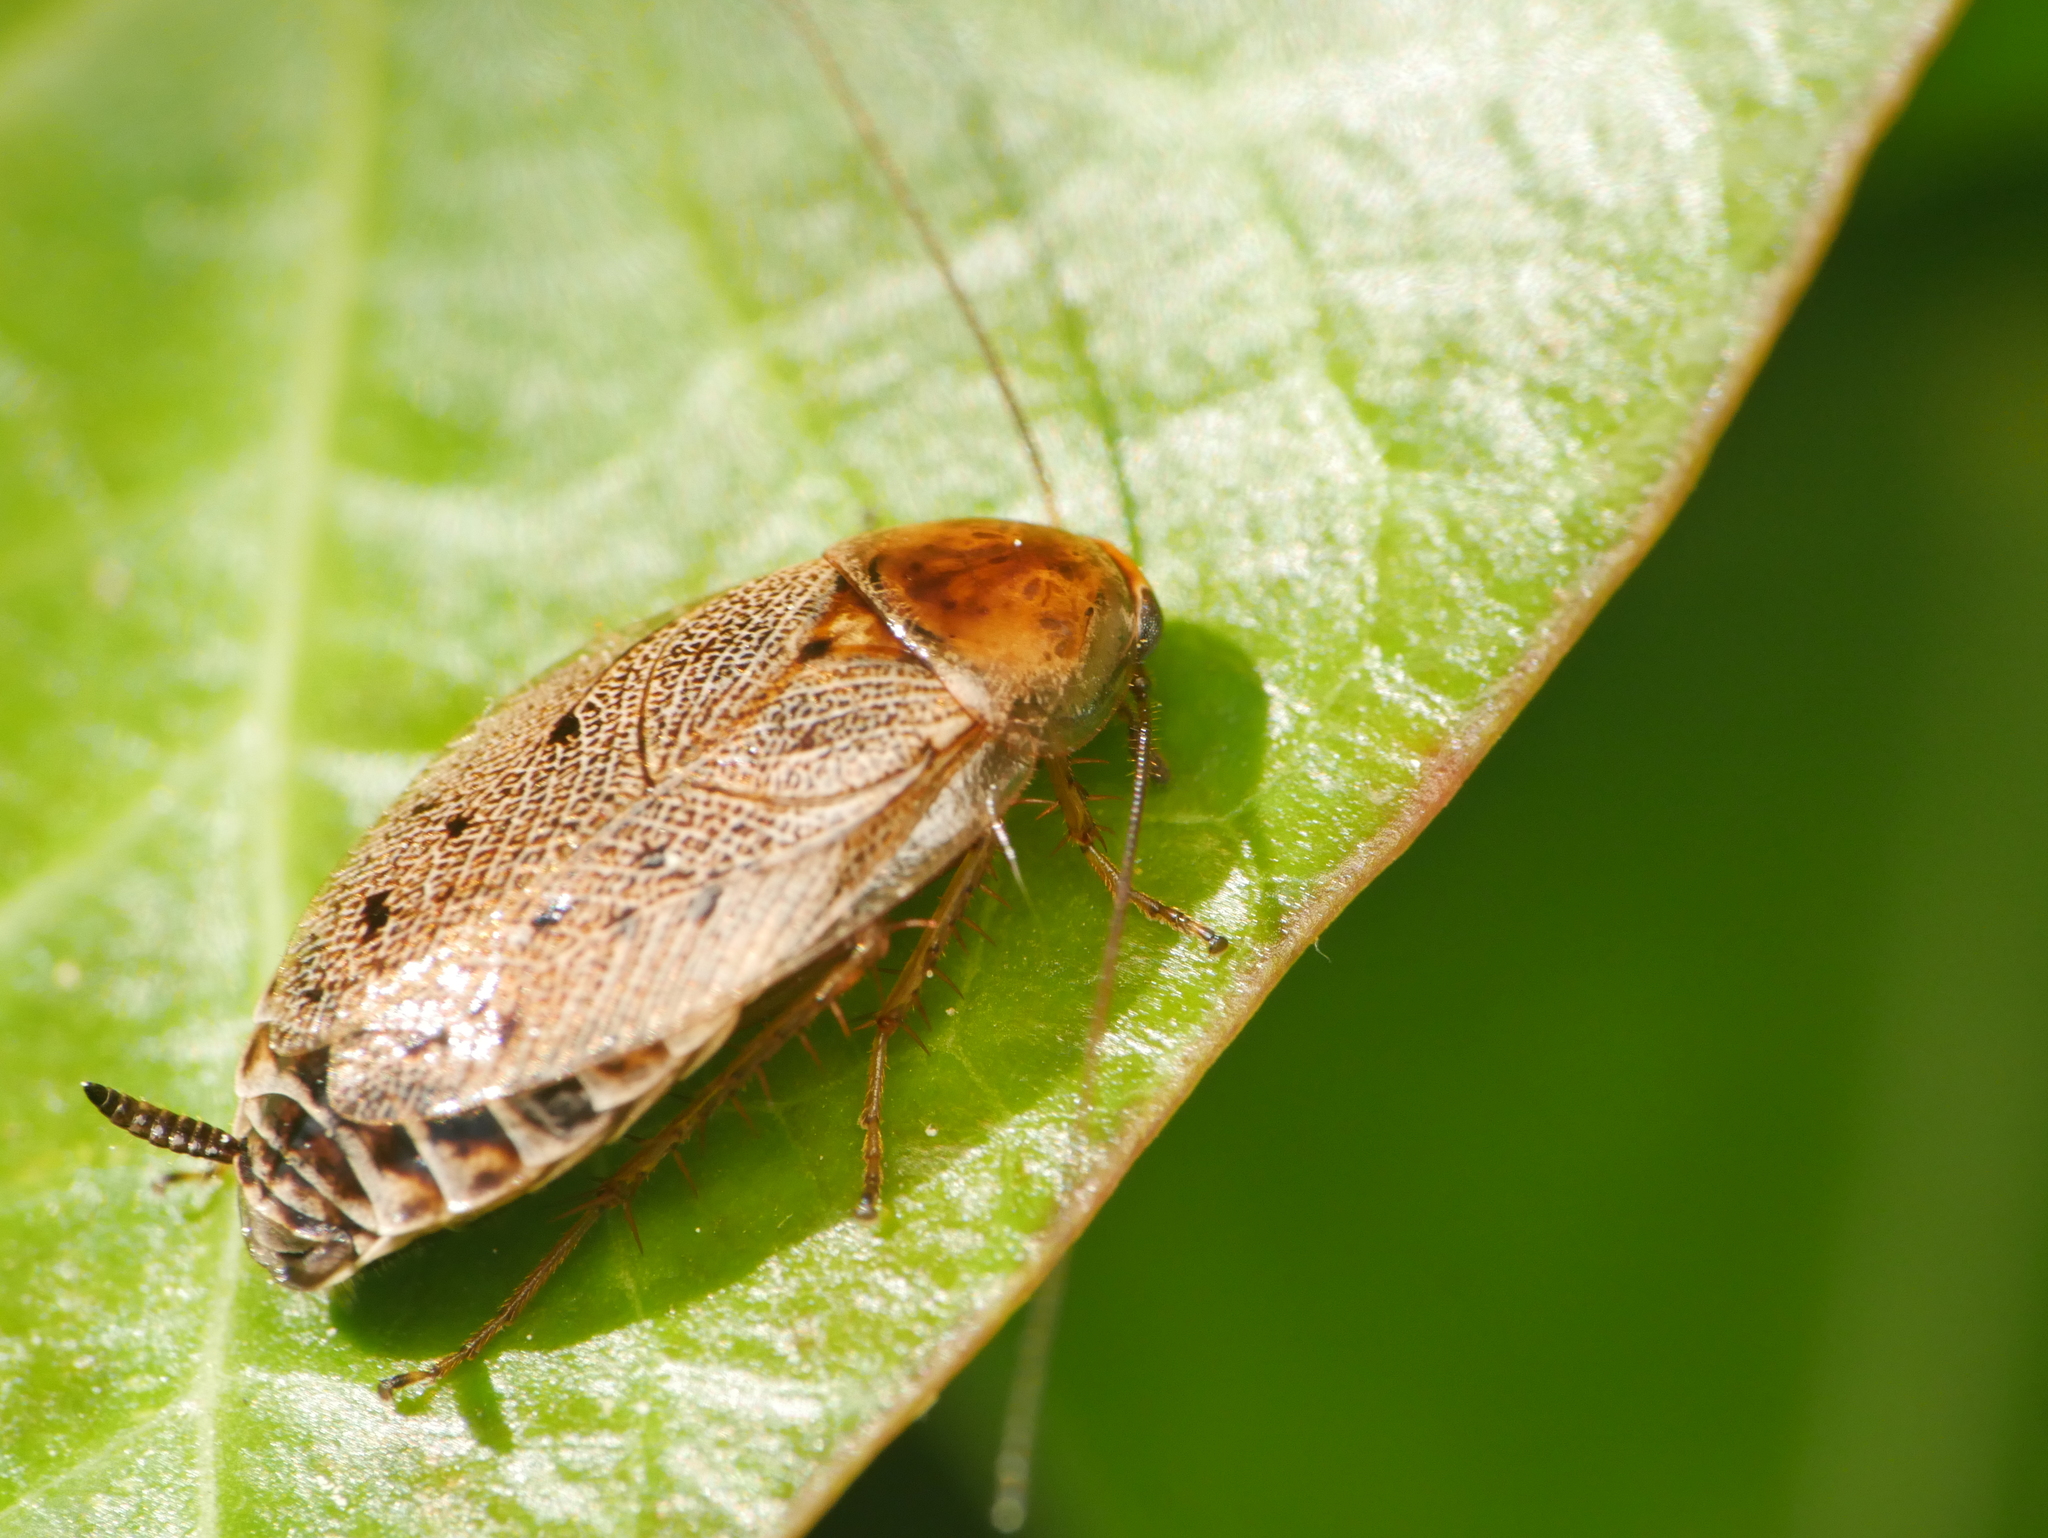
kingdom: Animalia
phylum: Arthropoda
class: Insecta
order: Blattodea
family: Ectobiidae
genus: Ectobius
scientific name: Ectobius lapponicus
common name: Dusky cockroach
